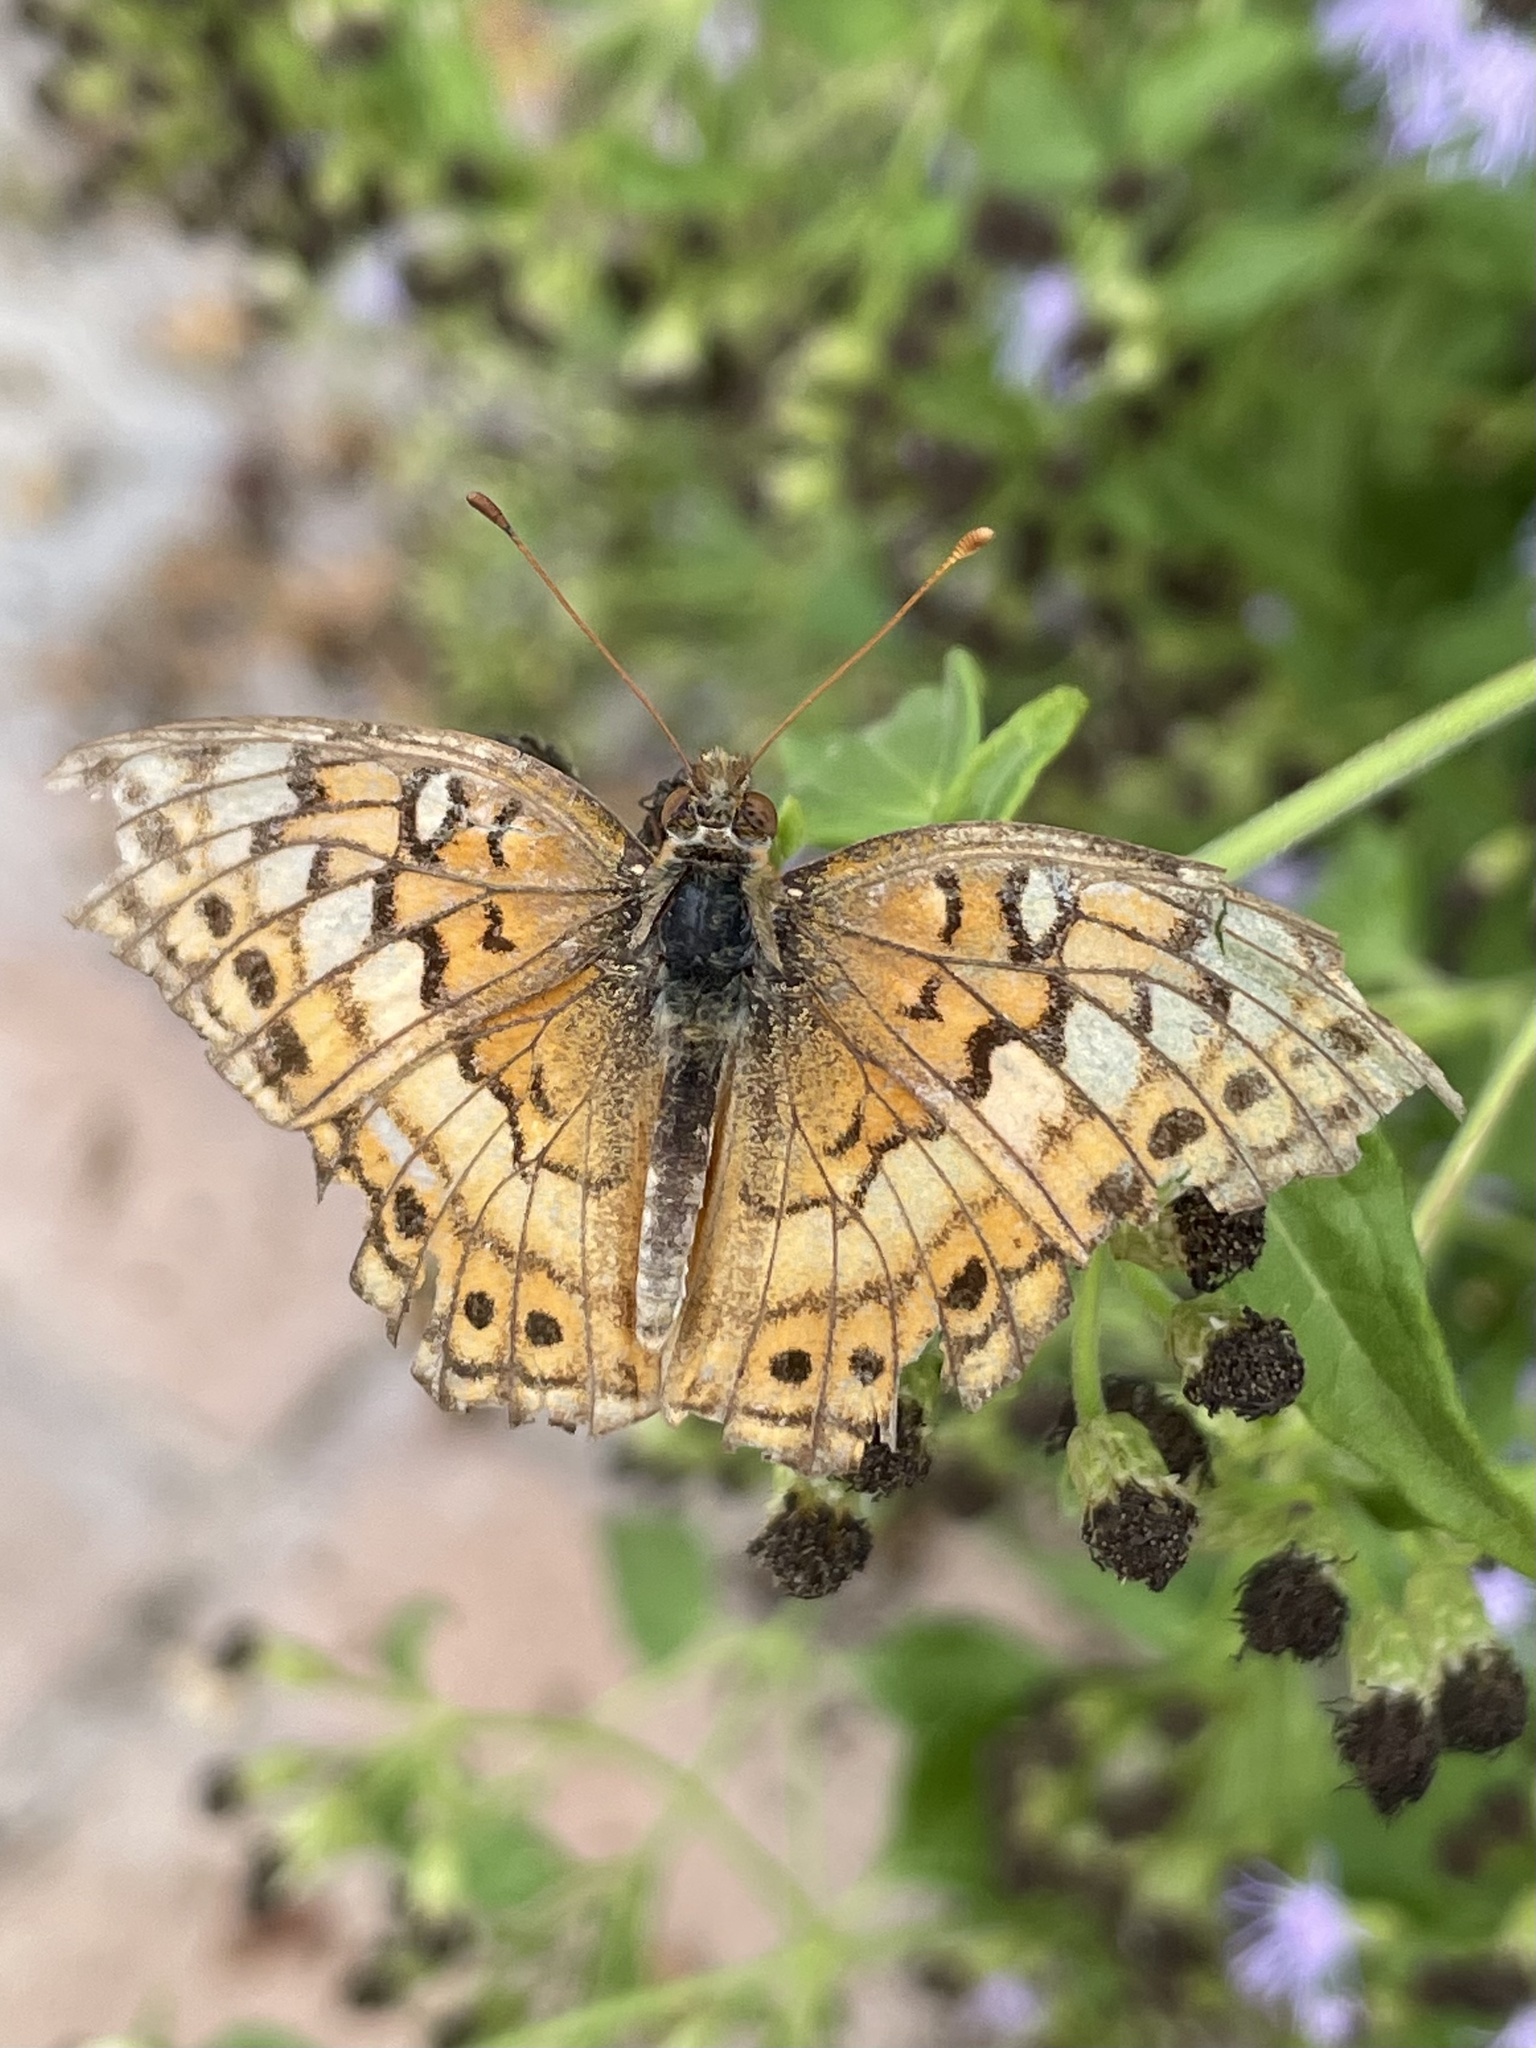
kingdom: Animalia
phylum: Arthropoda
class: Insecta
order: Lepidoptera
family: Nymphalidae
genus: Euptoieta
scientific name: Euptoieta claudia
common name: Variegated fritillary
